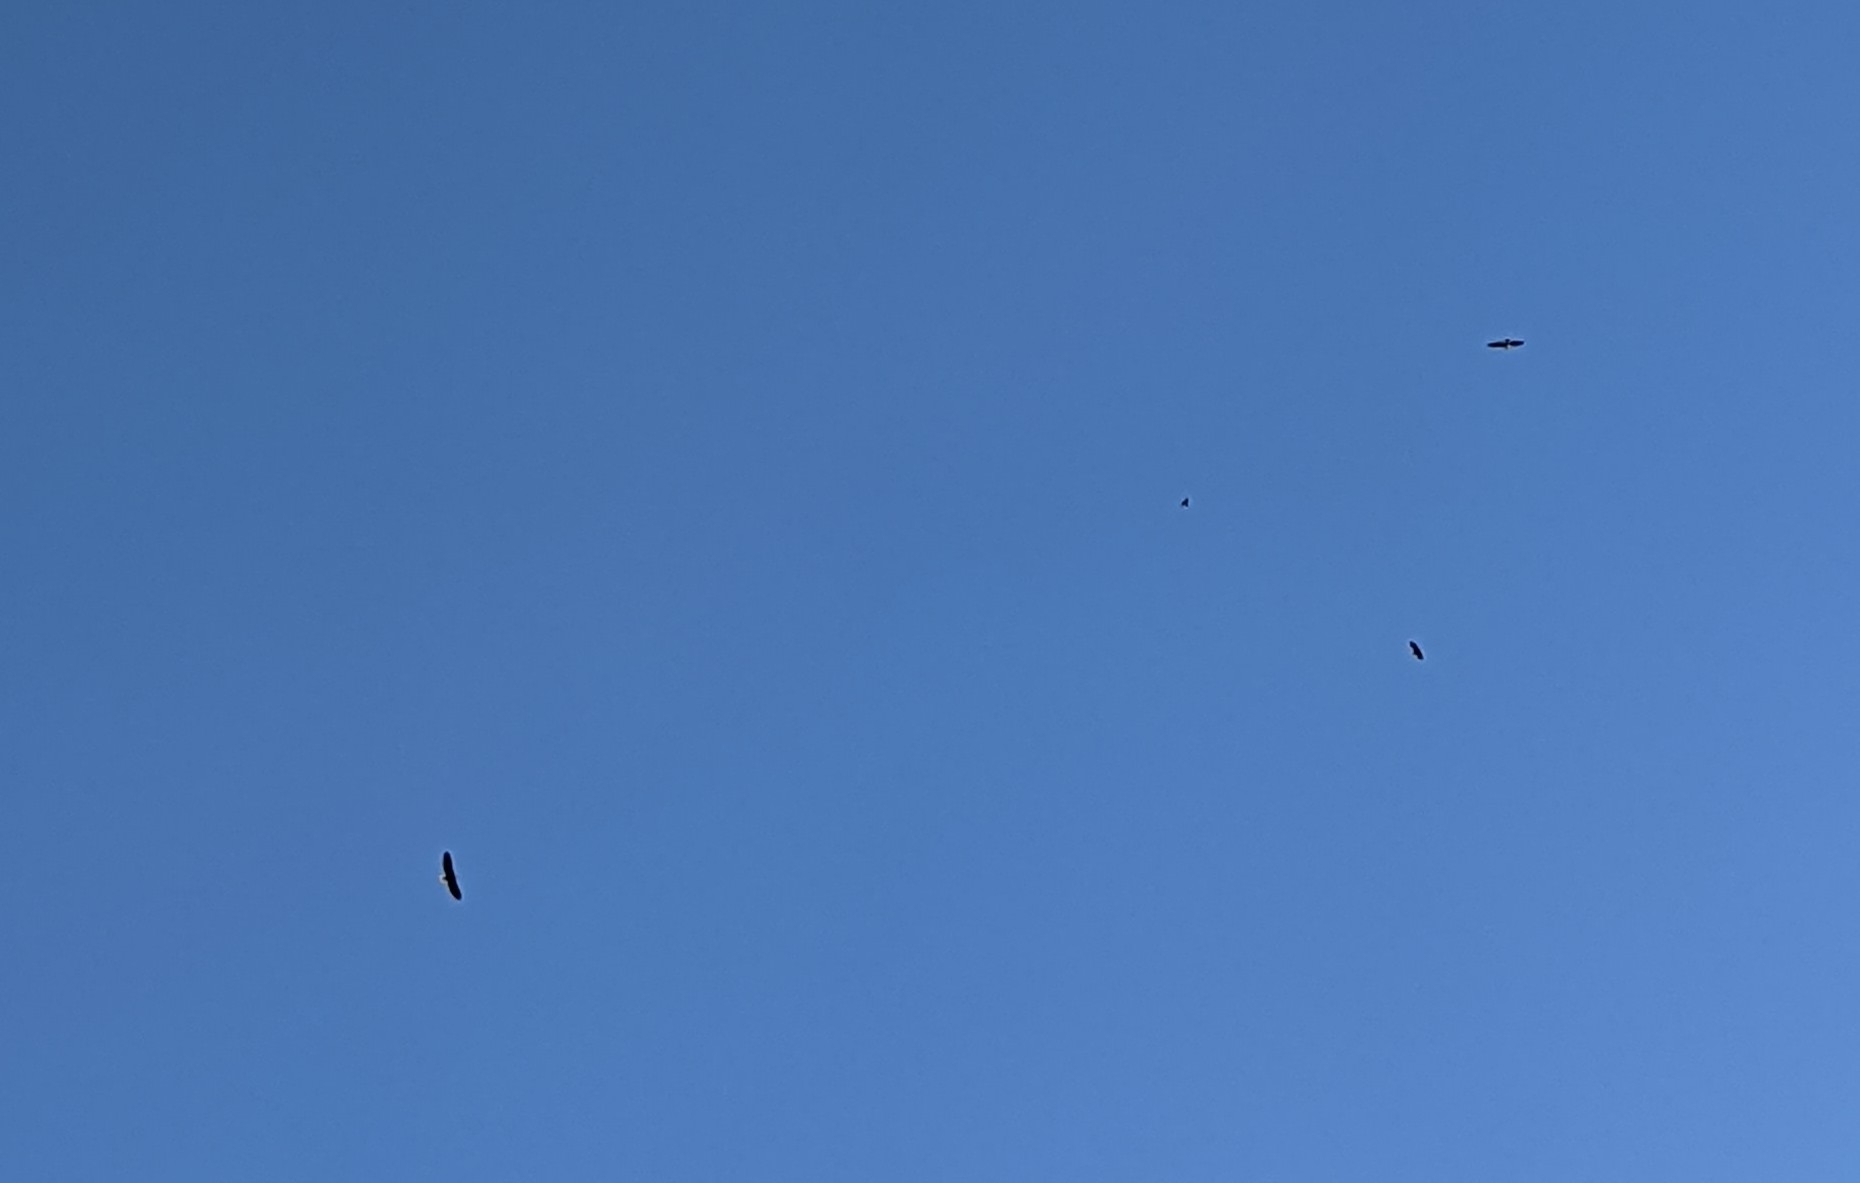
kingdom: Animalia
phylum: Chordata
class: Aves
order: Accipitriformes
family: Accipitridae
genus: Haliaeetus
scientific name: Haliaeetus leucocephalus
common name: Bald eagle
